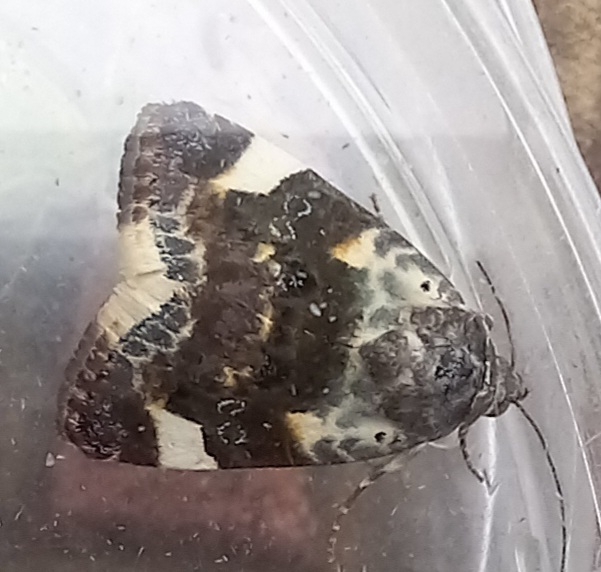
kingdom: Animalia
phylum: Arthropoda
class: Insecta
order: Lepidoptera
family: Noctuidae
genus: Acontia
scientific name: Acontia lucida
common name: Pale shoulder
